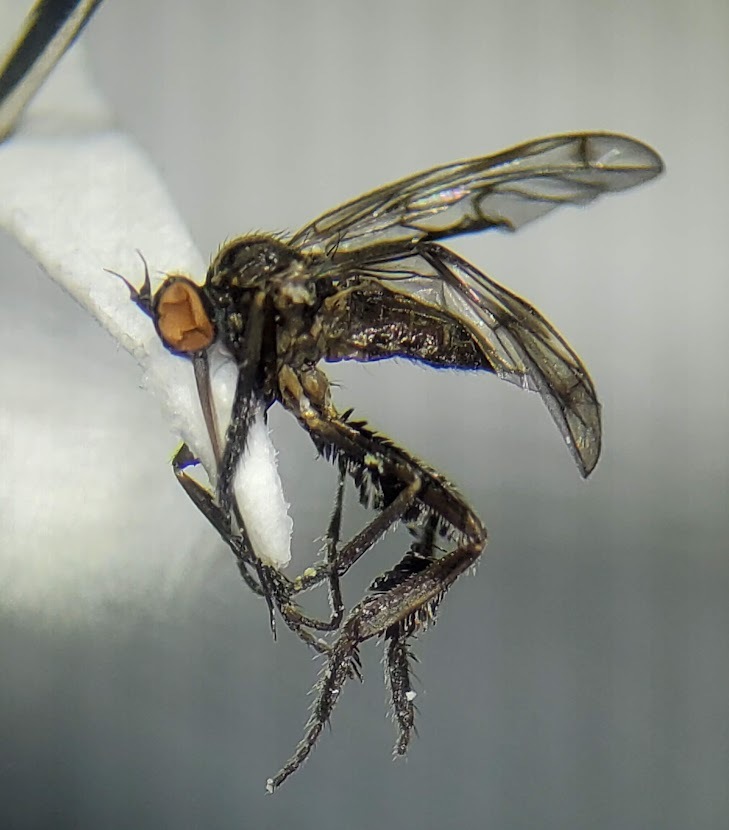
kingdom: Animalia
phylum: Arthropoda
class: Insecta
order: Diptera
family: Empididae
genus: Empis
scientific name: Empis clausa
